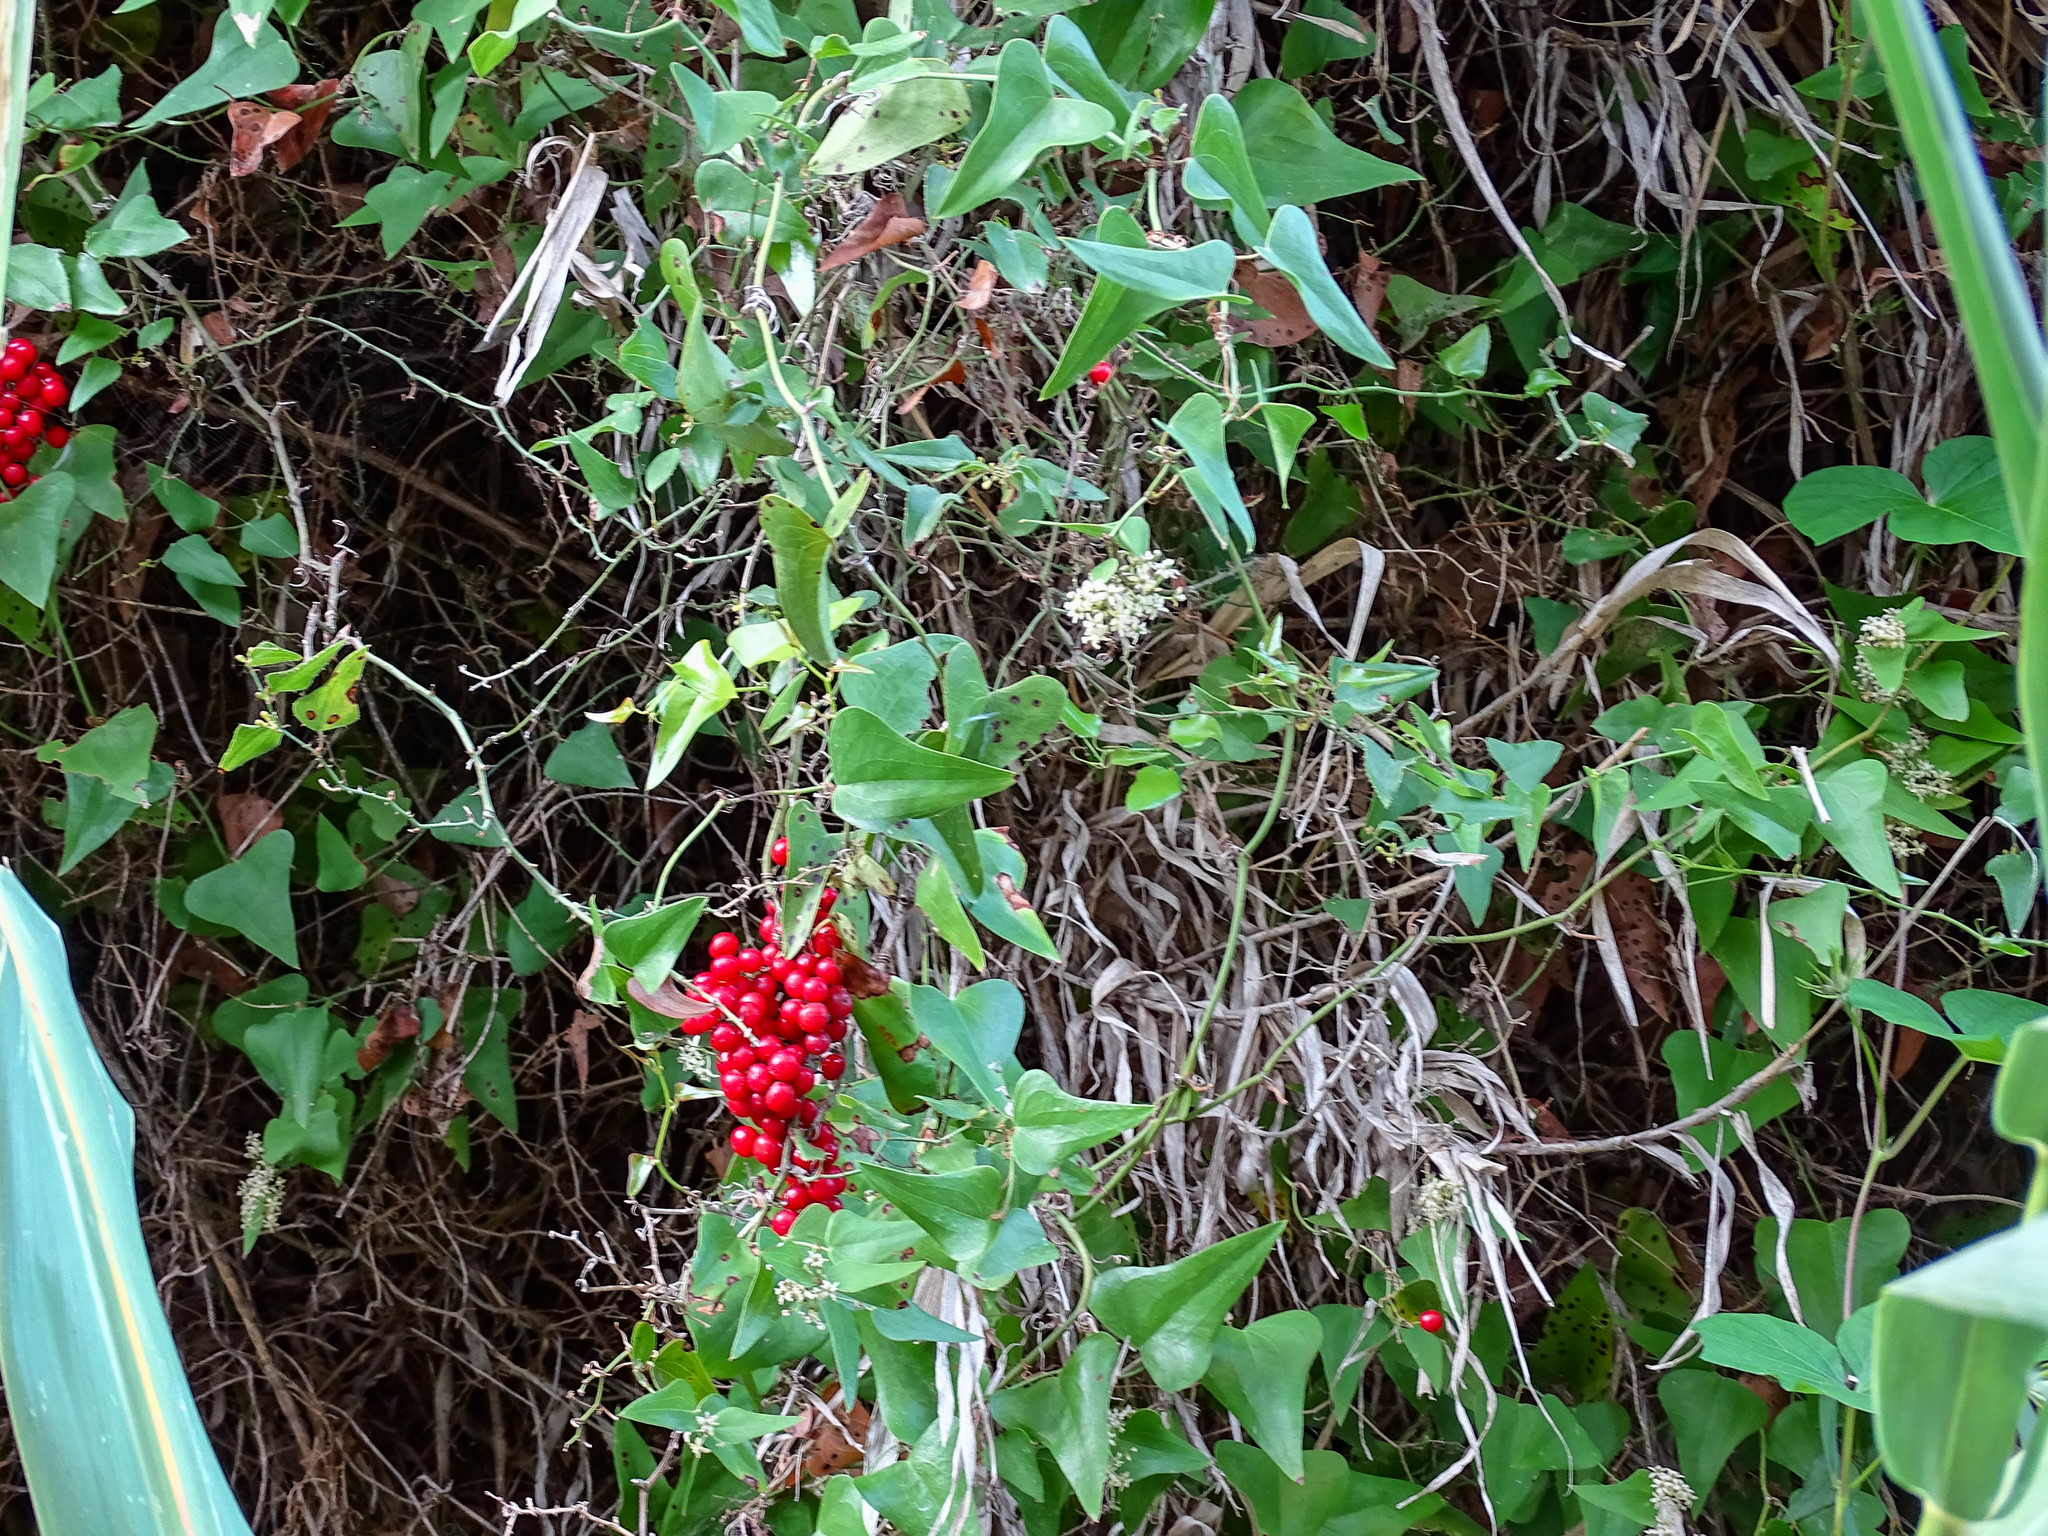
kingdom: Plantae
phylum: Tracheophyta
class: Liliopsida
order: Liliales
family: Smilacaceae
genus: Smilax
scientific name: Smilax aspera
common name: Common smilax
